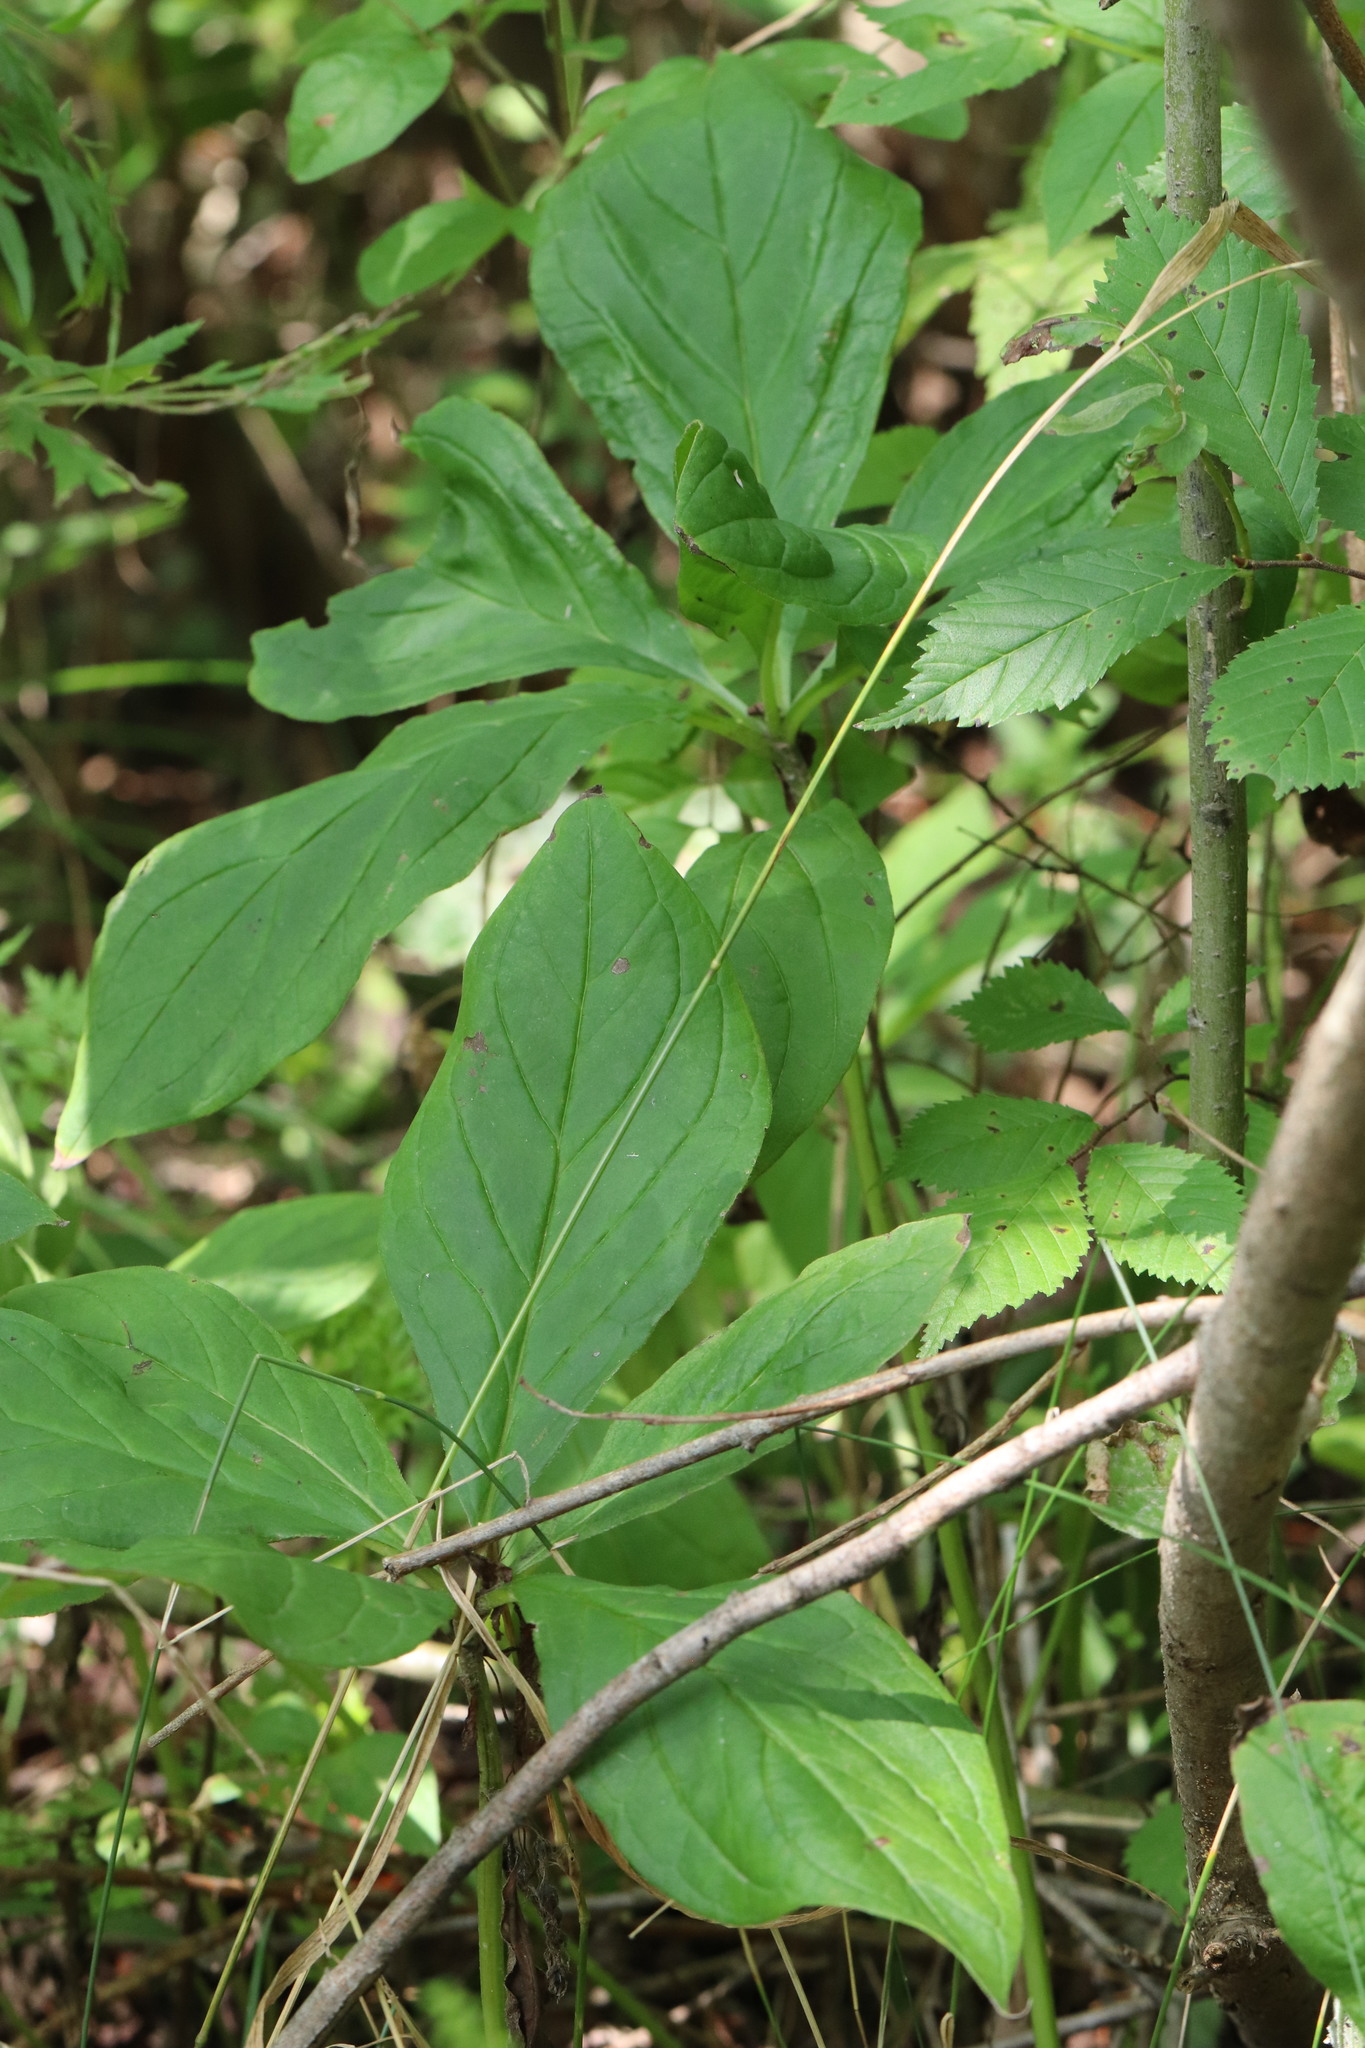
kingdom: Plantae
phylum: Tracheophyta
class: Magnoliopsida
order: Boraginales
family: Boraginaceae
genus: Brachybotrys
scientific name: Brachybotrys paridiformis
